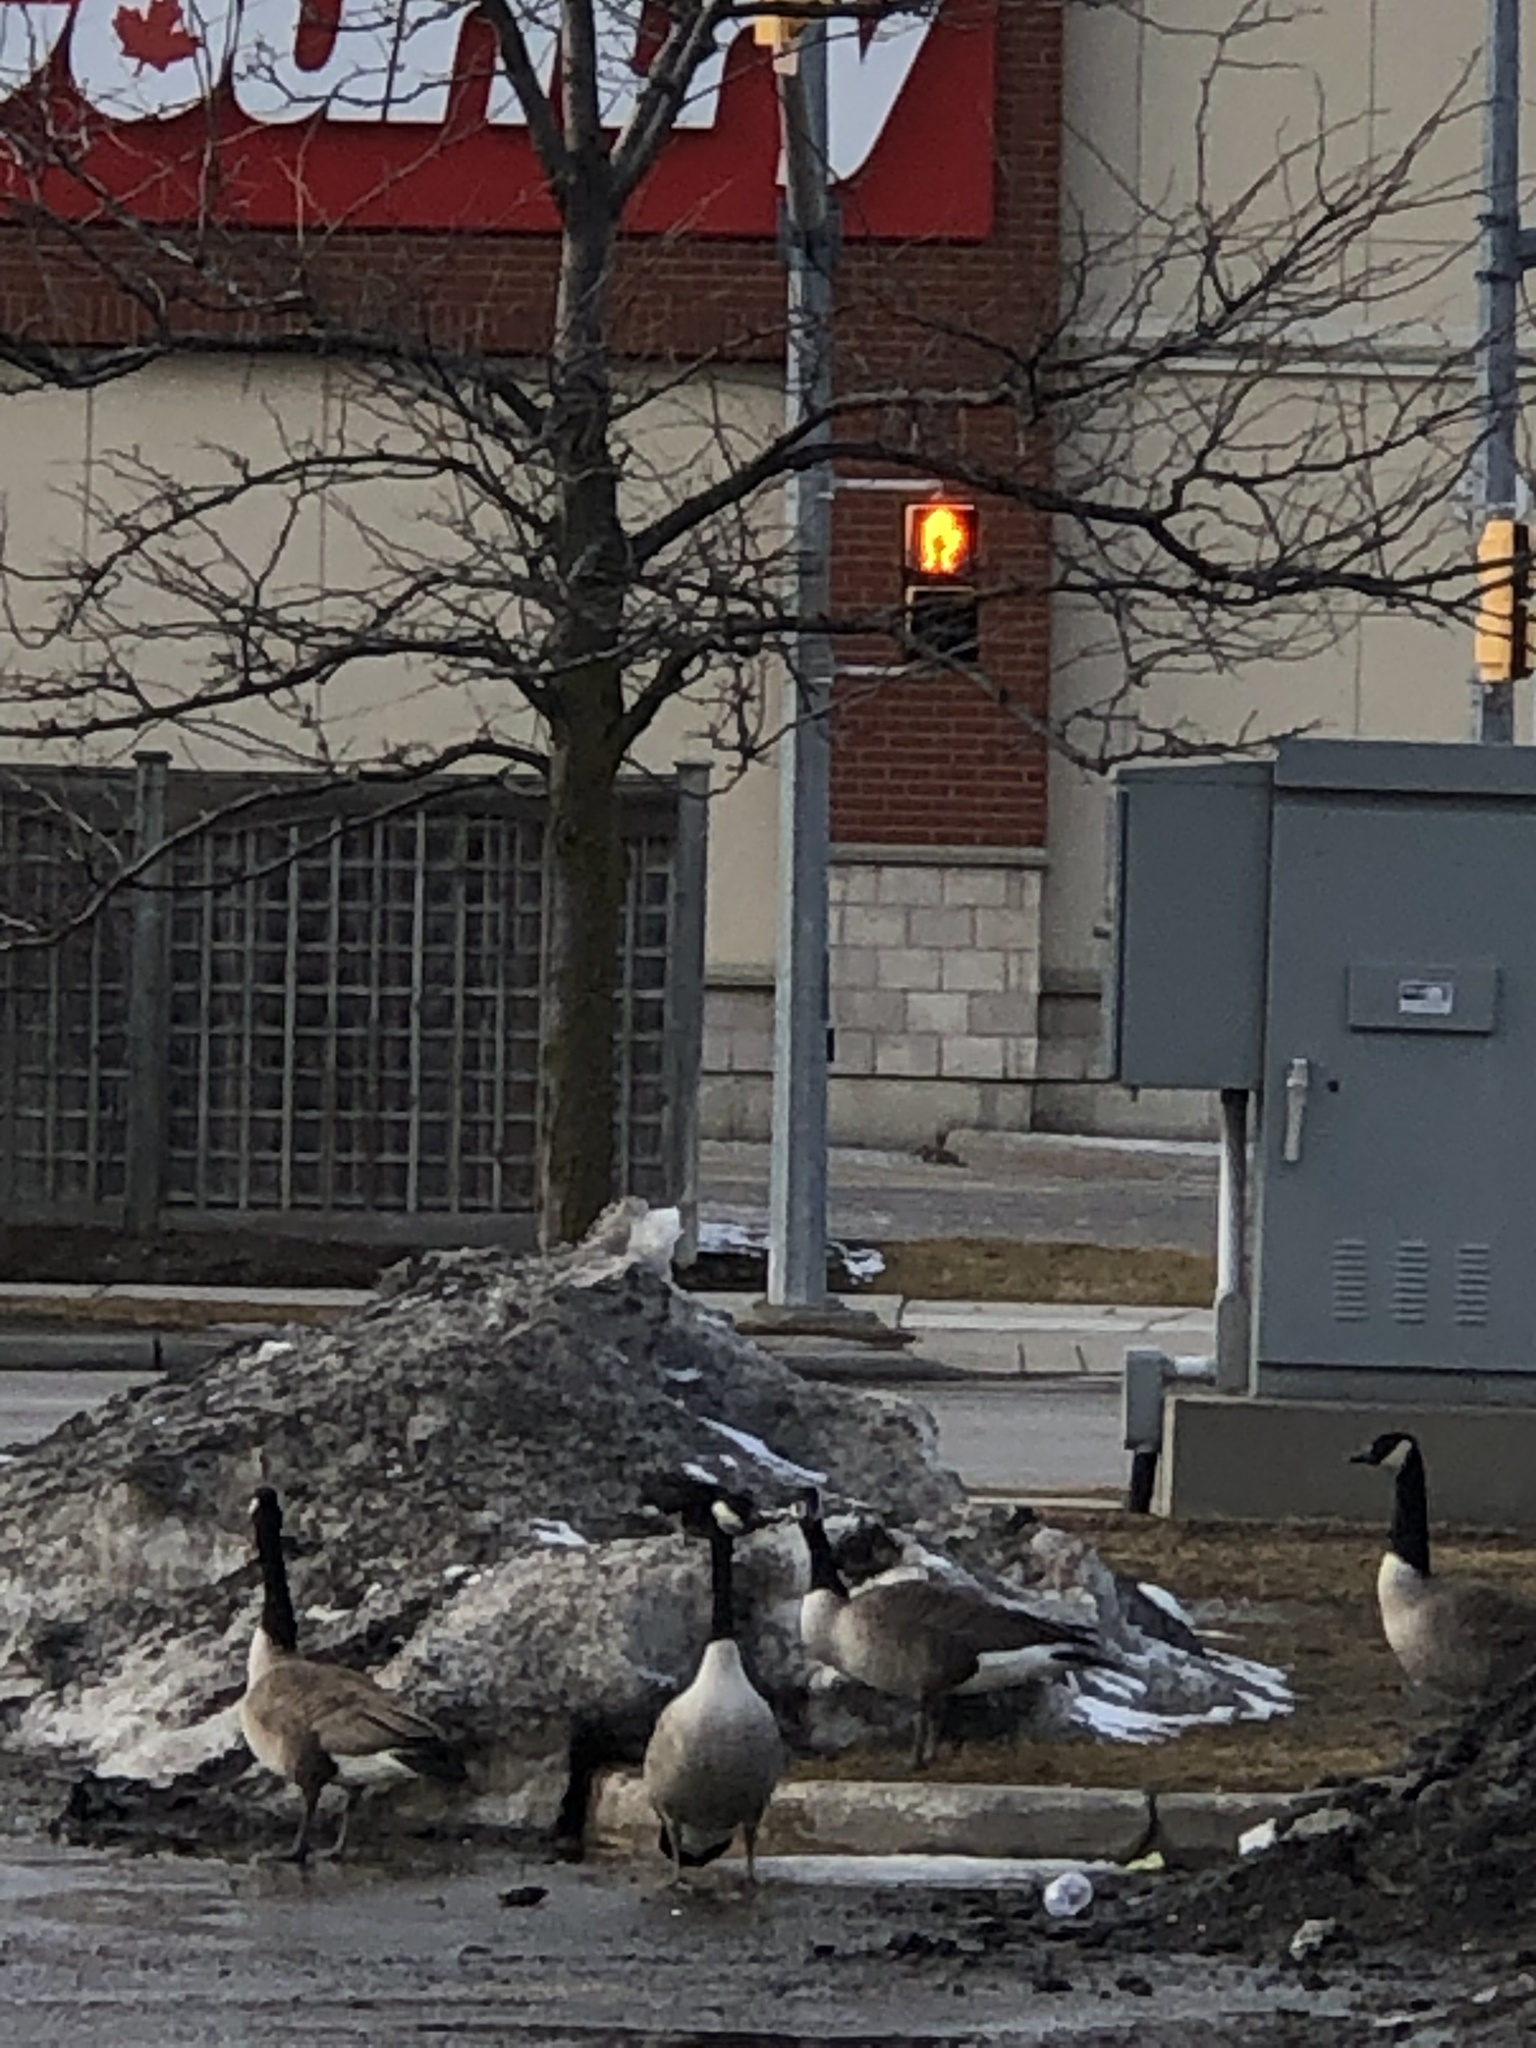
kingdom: Animalia
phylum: Chordata
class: Aves
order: Anseriformes
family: Anatidae
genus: Branta
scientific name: Branta canadensis
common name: Canada goose
